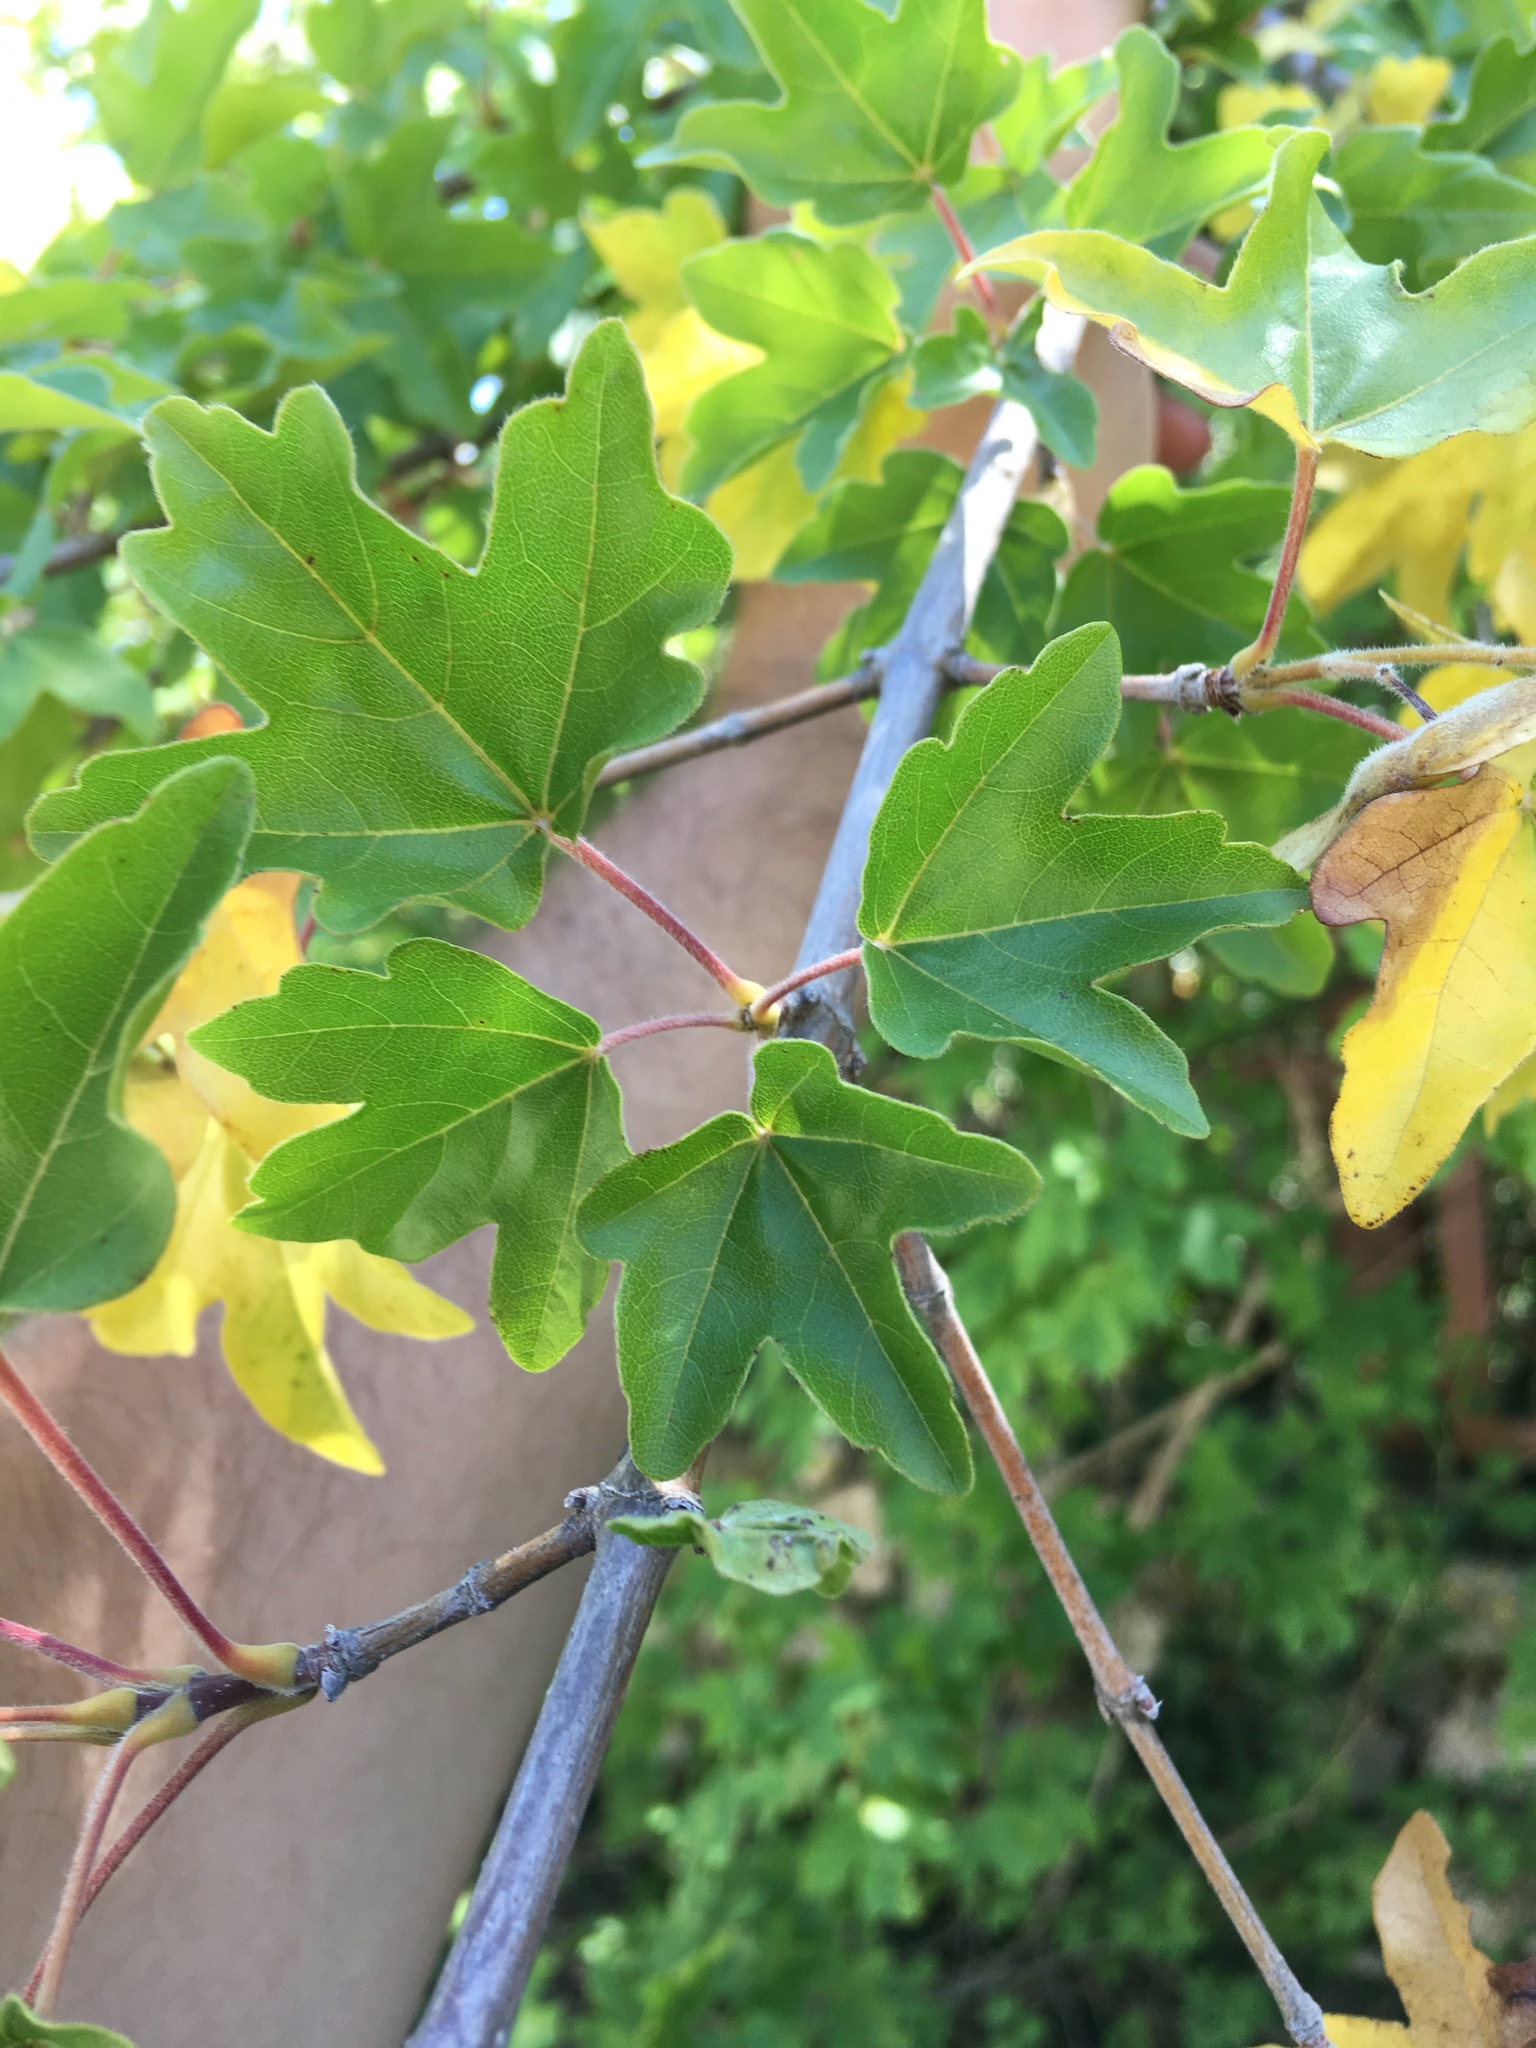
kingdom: Plantae
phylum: Tracheophyta
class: Magnoliopsida
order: Sapindales
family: Sapindaceae
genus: Acer
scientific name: Acer campestre
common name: Field maple
